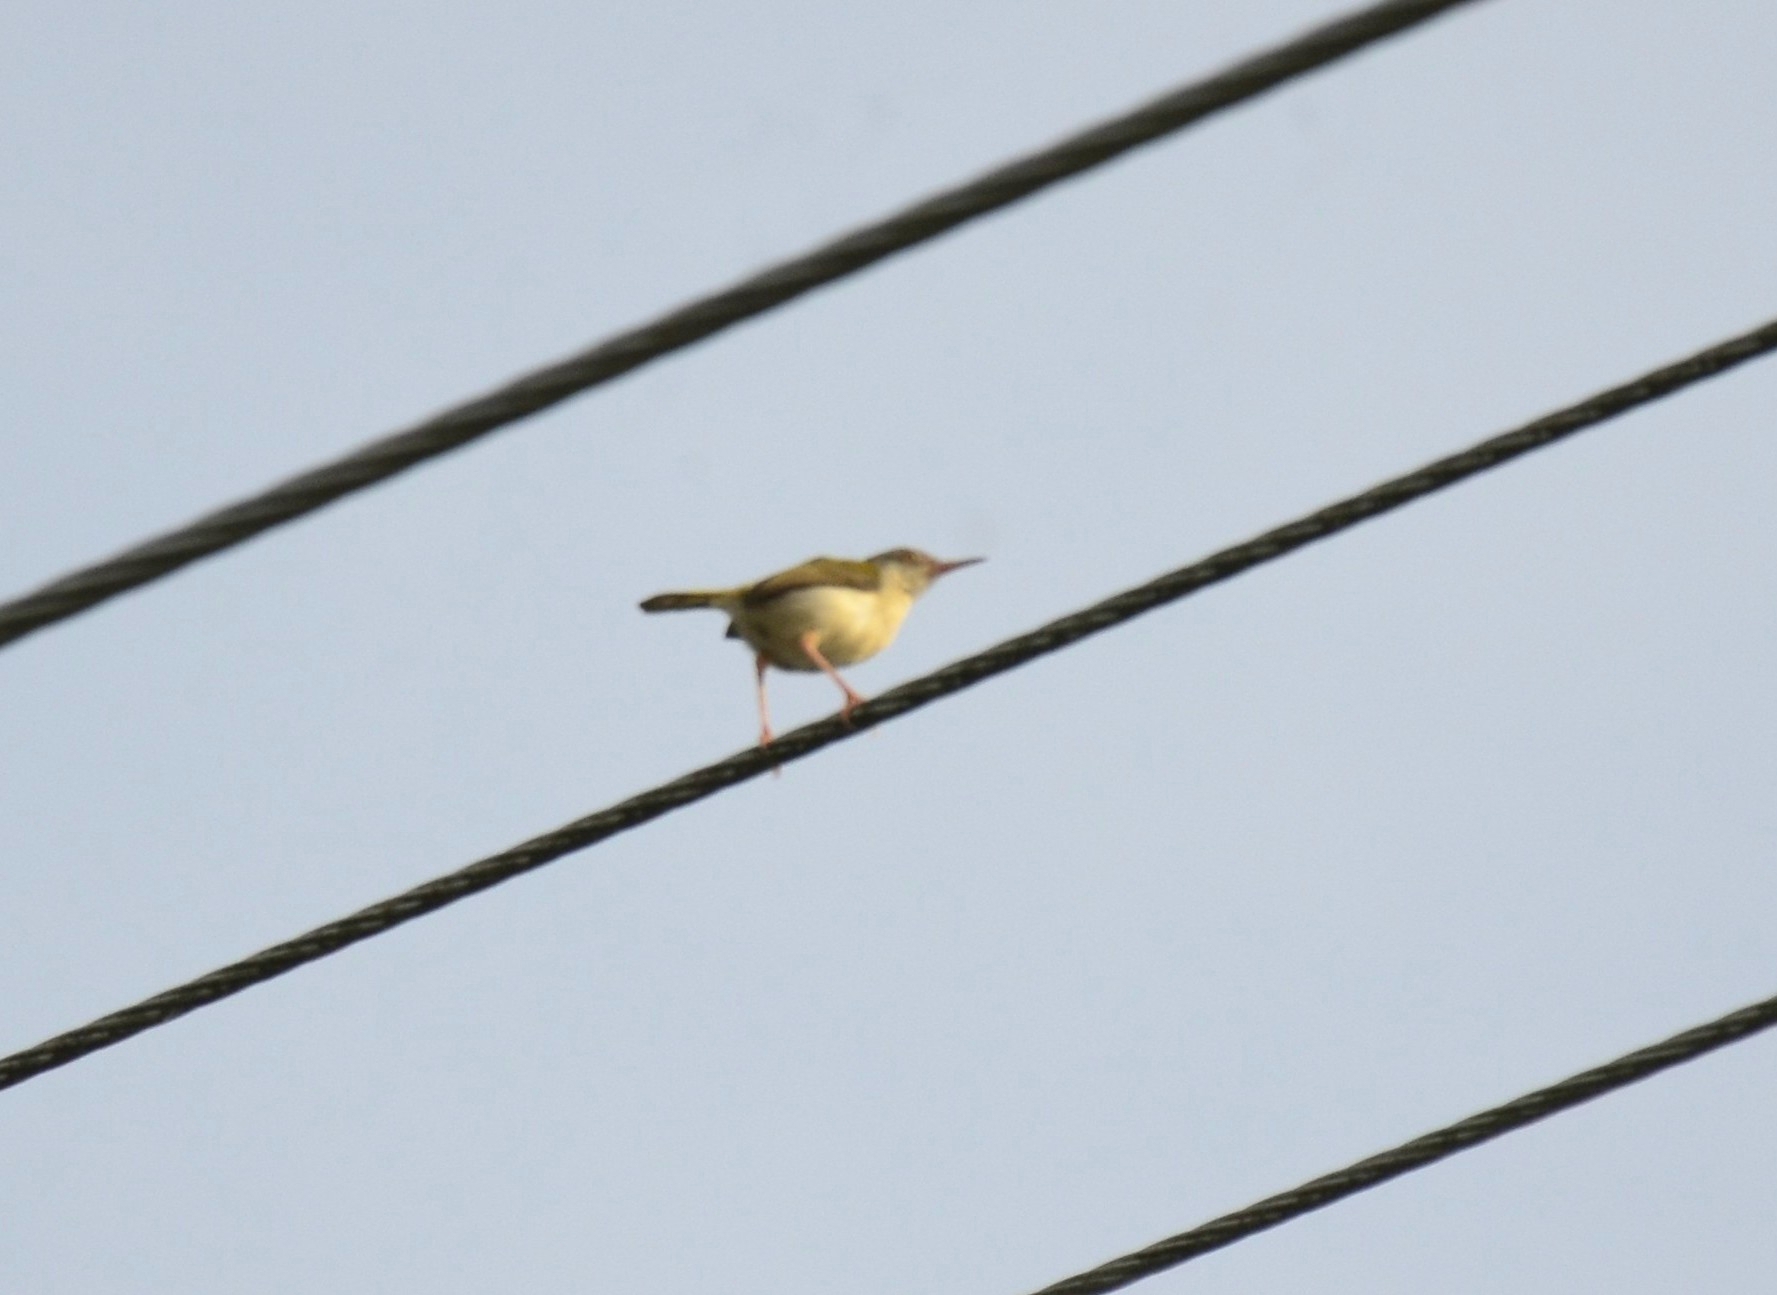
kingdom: Animalia
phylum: Chordata
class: Aves
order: Passeriformes
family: Cisticolidae
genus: Orthotomus
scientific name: Orthotomus sutorius
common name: Common tailorbird
